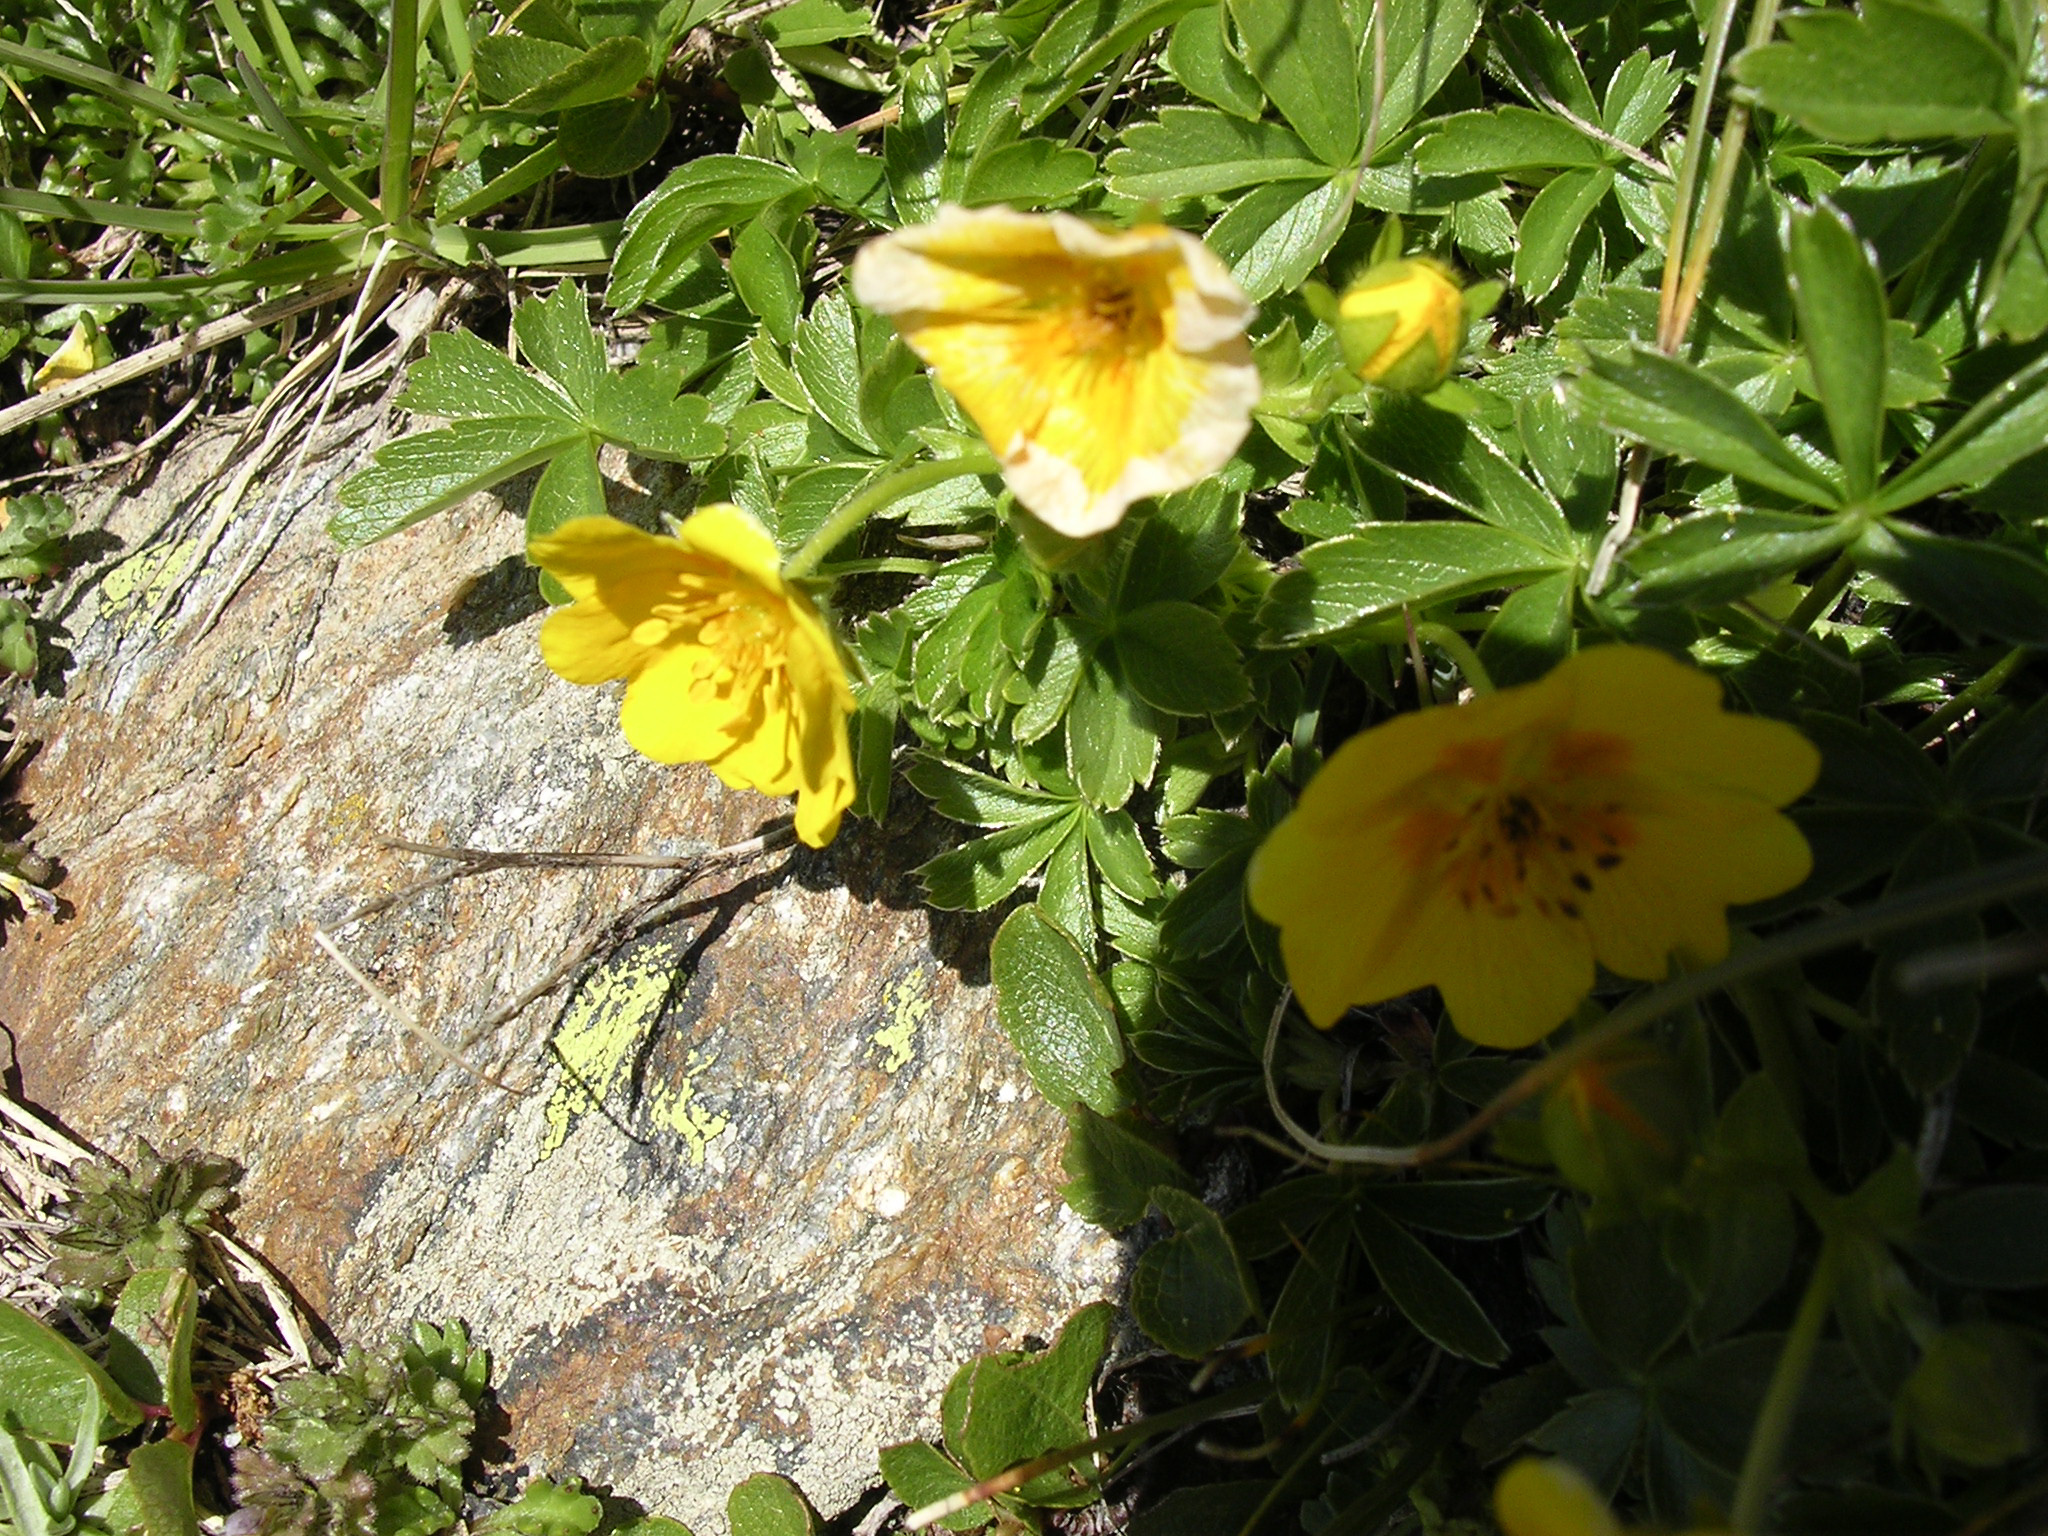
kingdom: Plantae
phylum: Tracheophyta
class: Magnoliopsida
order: Rosales
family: Rosaceae
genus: Potentilla
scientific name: Potentilla aurea
